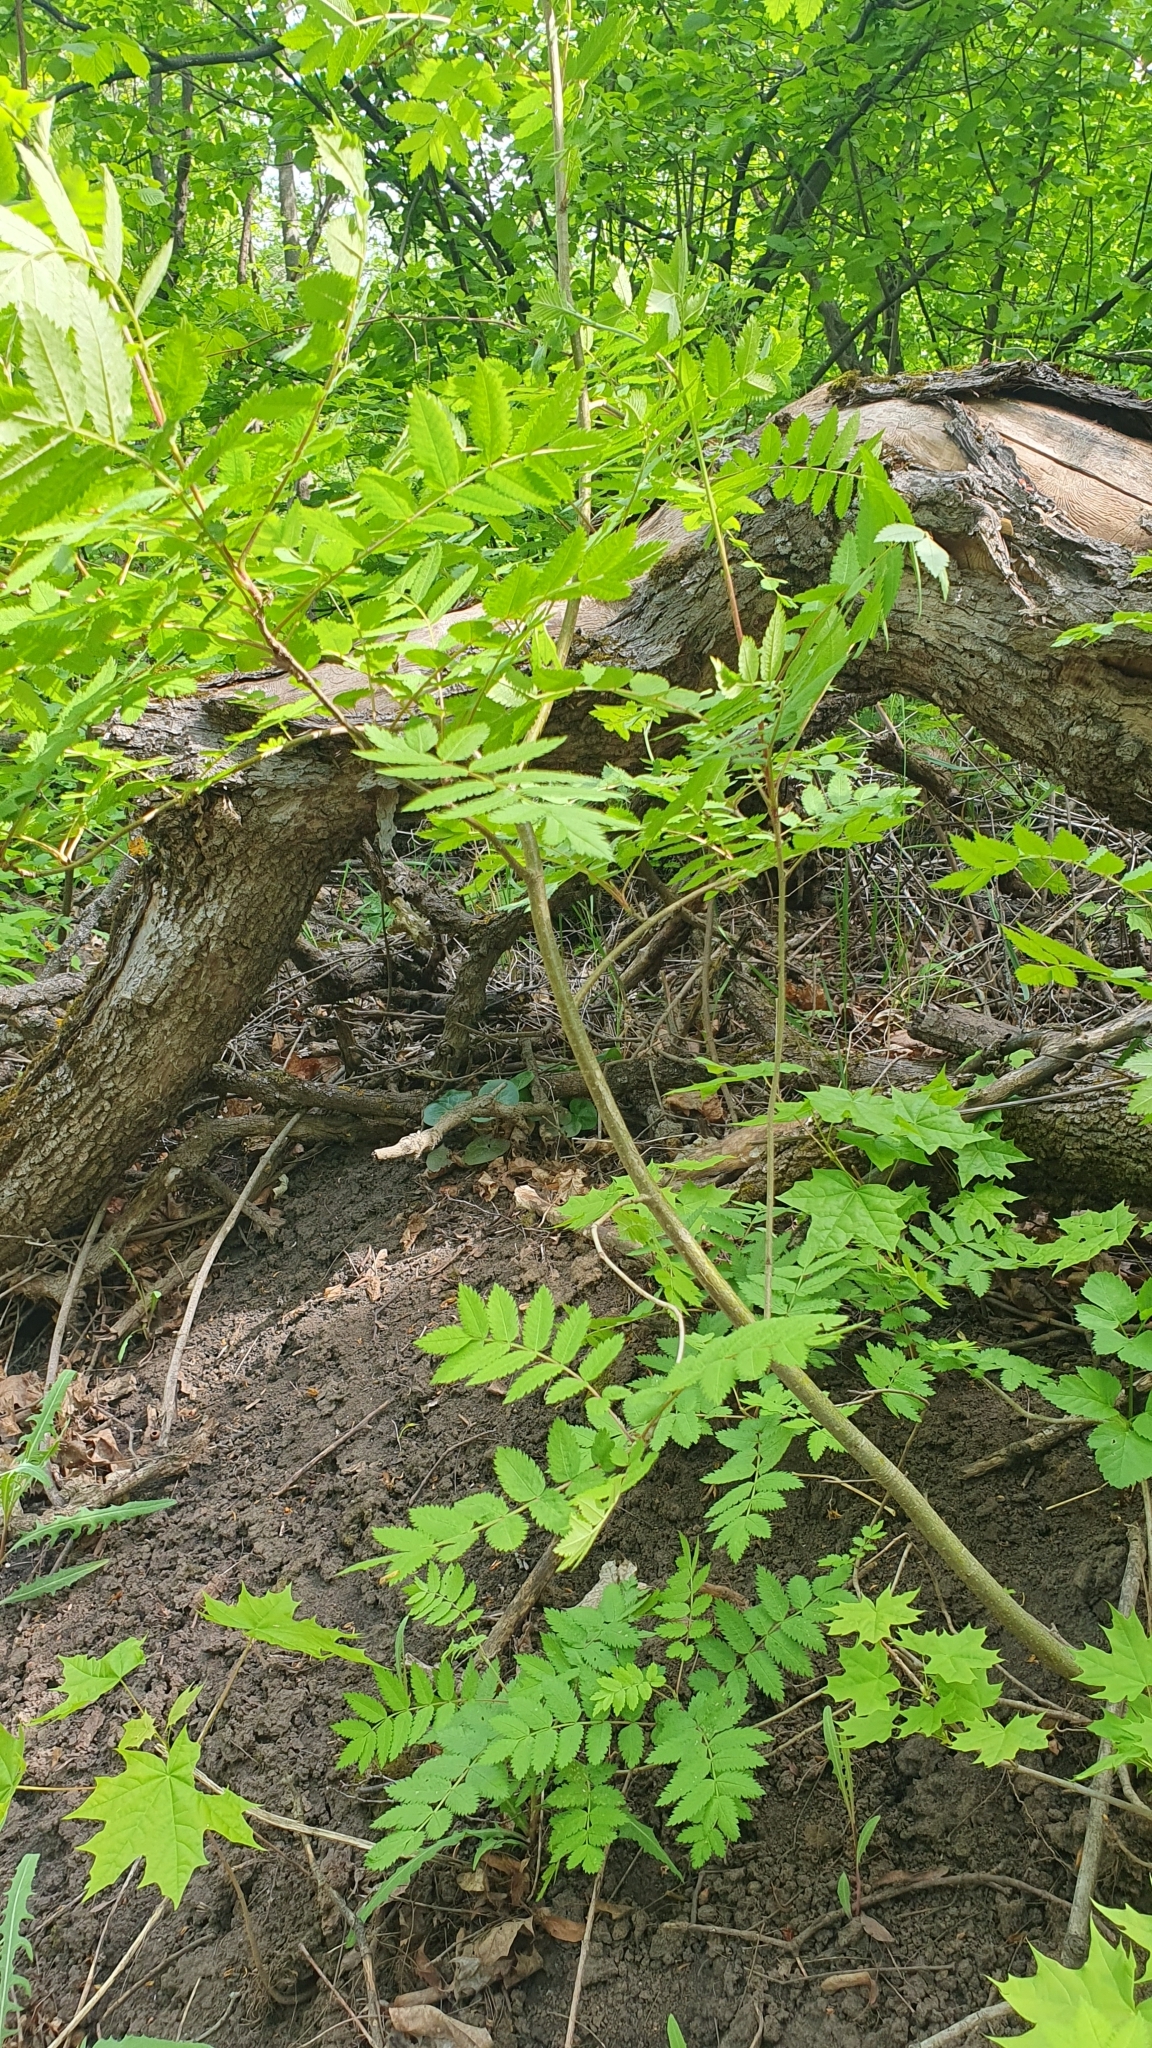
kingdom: Plantae
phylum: Tracheophyta
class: Magnoliopsida
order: Rosales
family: Rosaceae
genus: Sorbus
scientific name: Sorbus aucuparia
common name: Rowan
